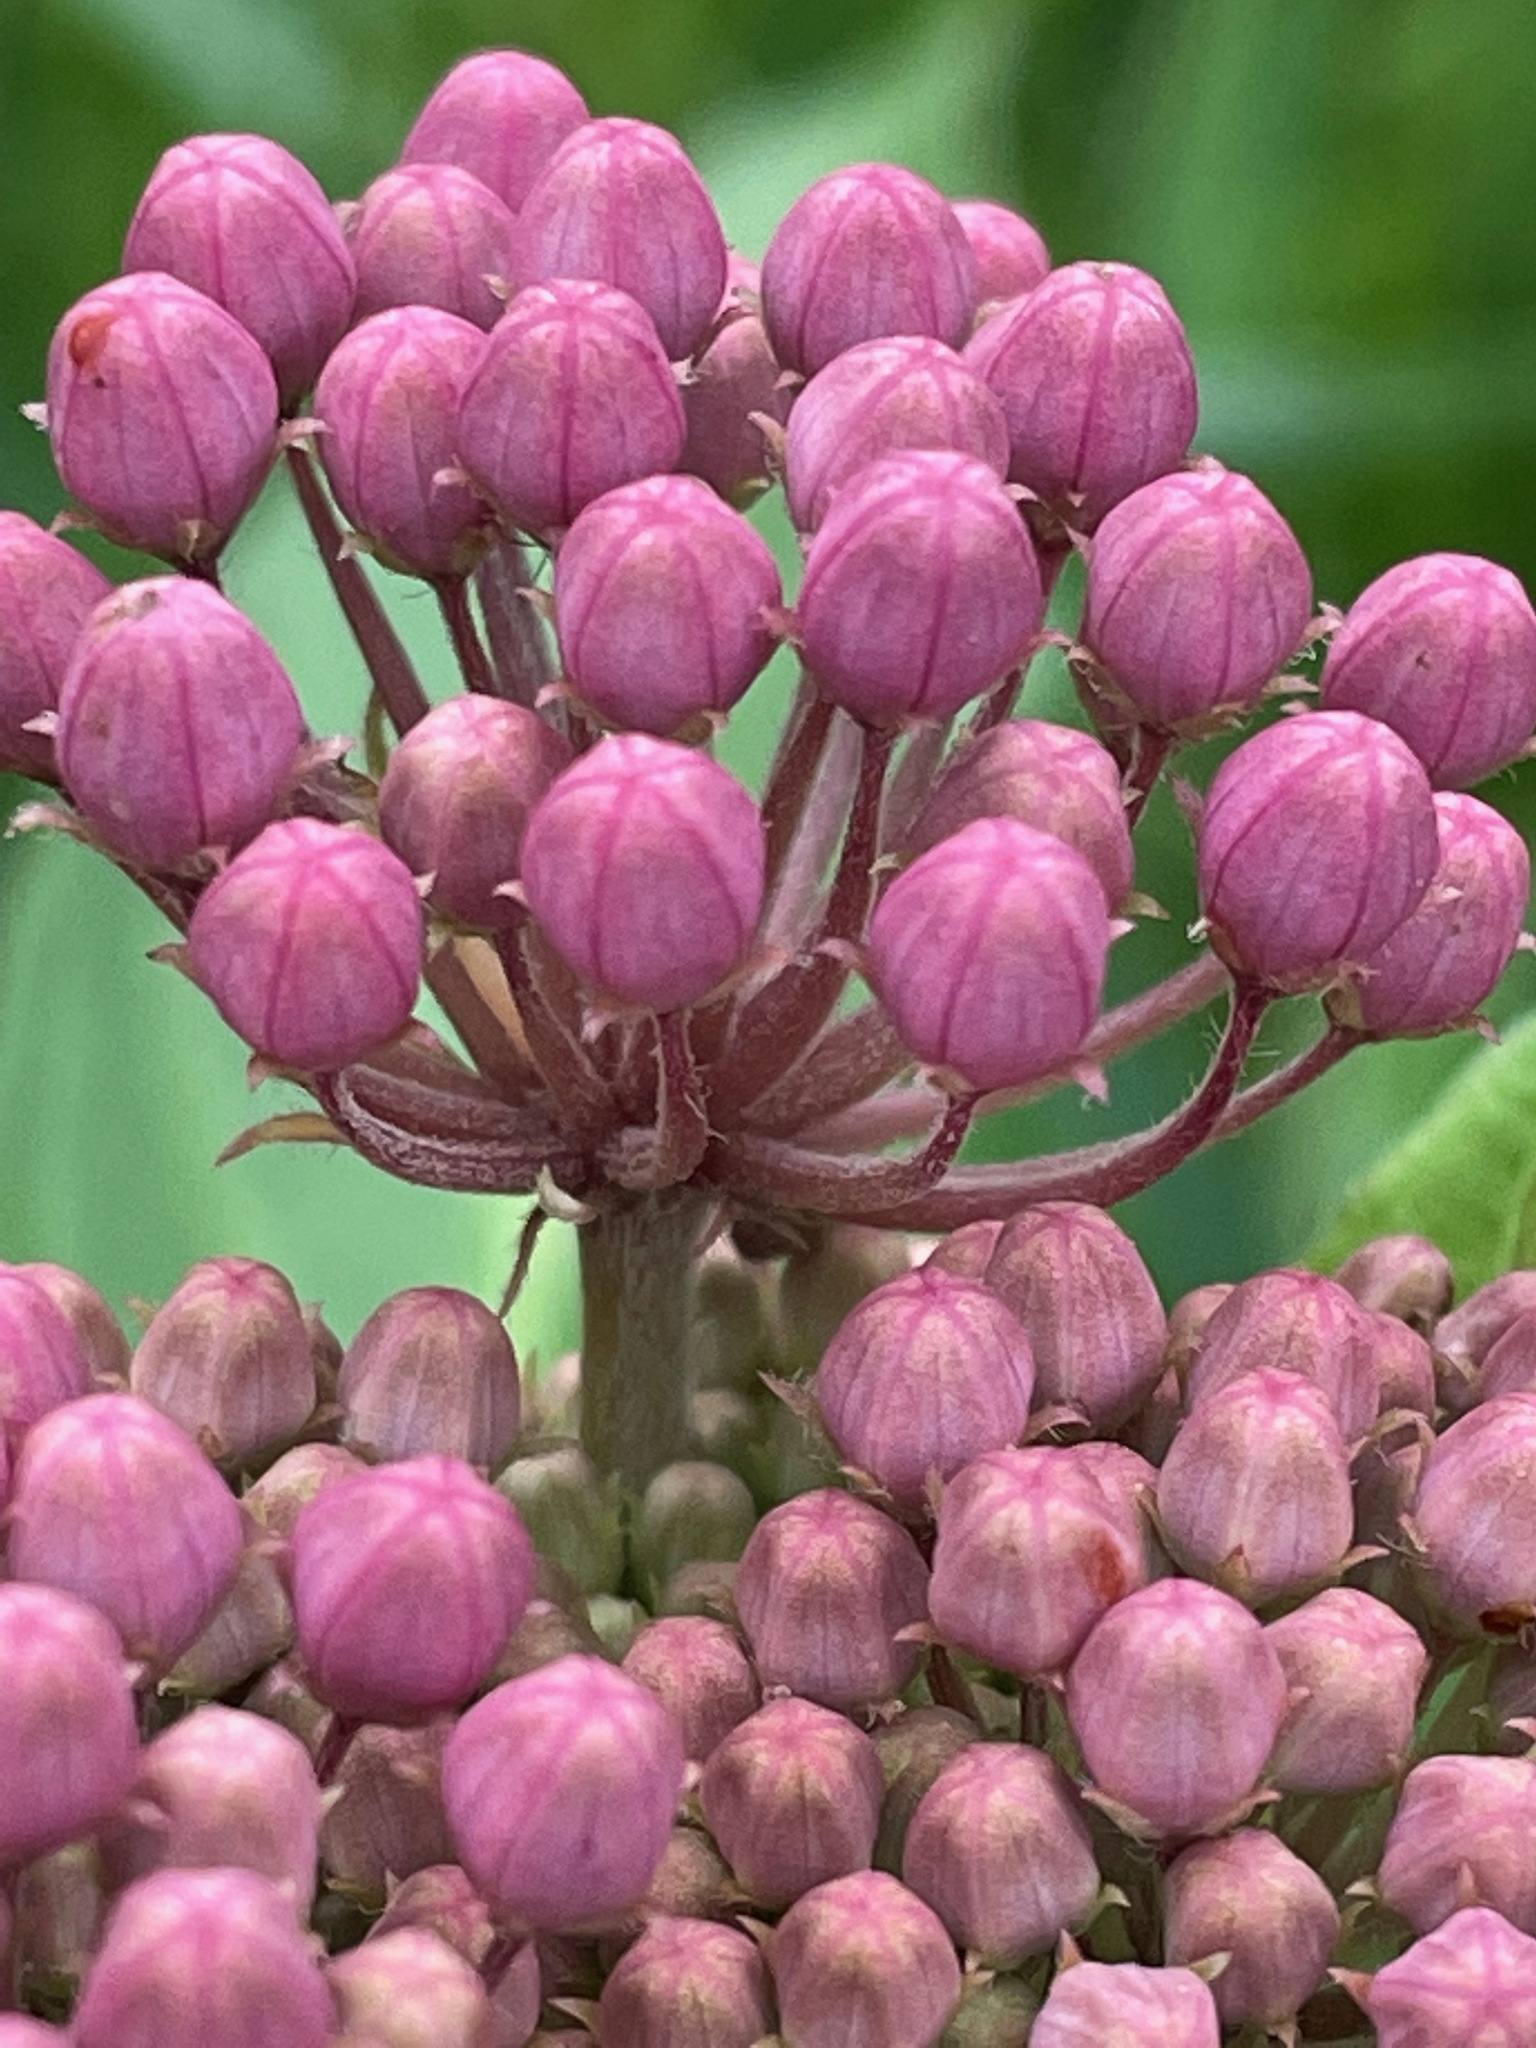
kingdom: Plantae
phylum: Tracheophyta
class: Magnoliopsida
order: Gentianales
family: Apocynaceae
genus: Asclepias
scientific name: Asclepias incarnata
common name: Swamp milkweed
